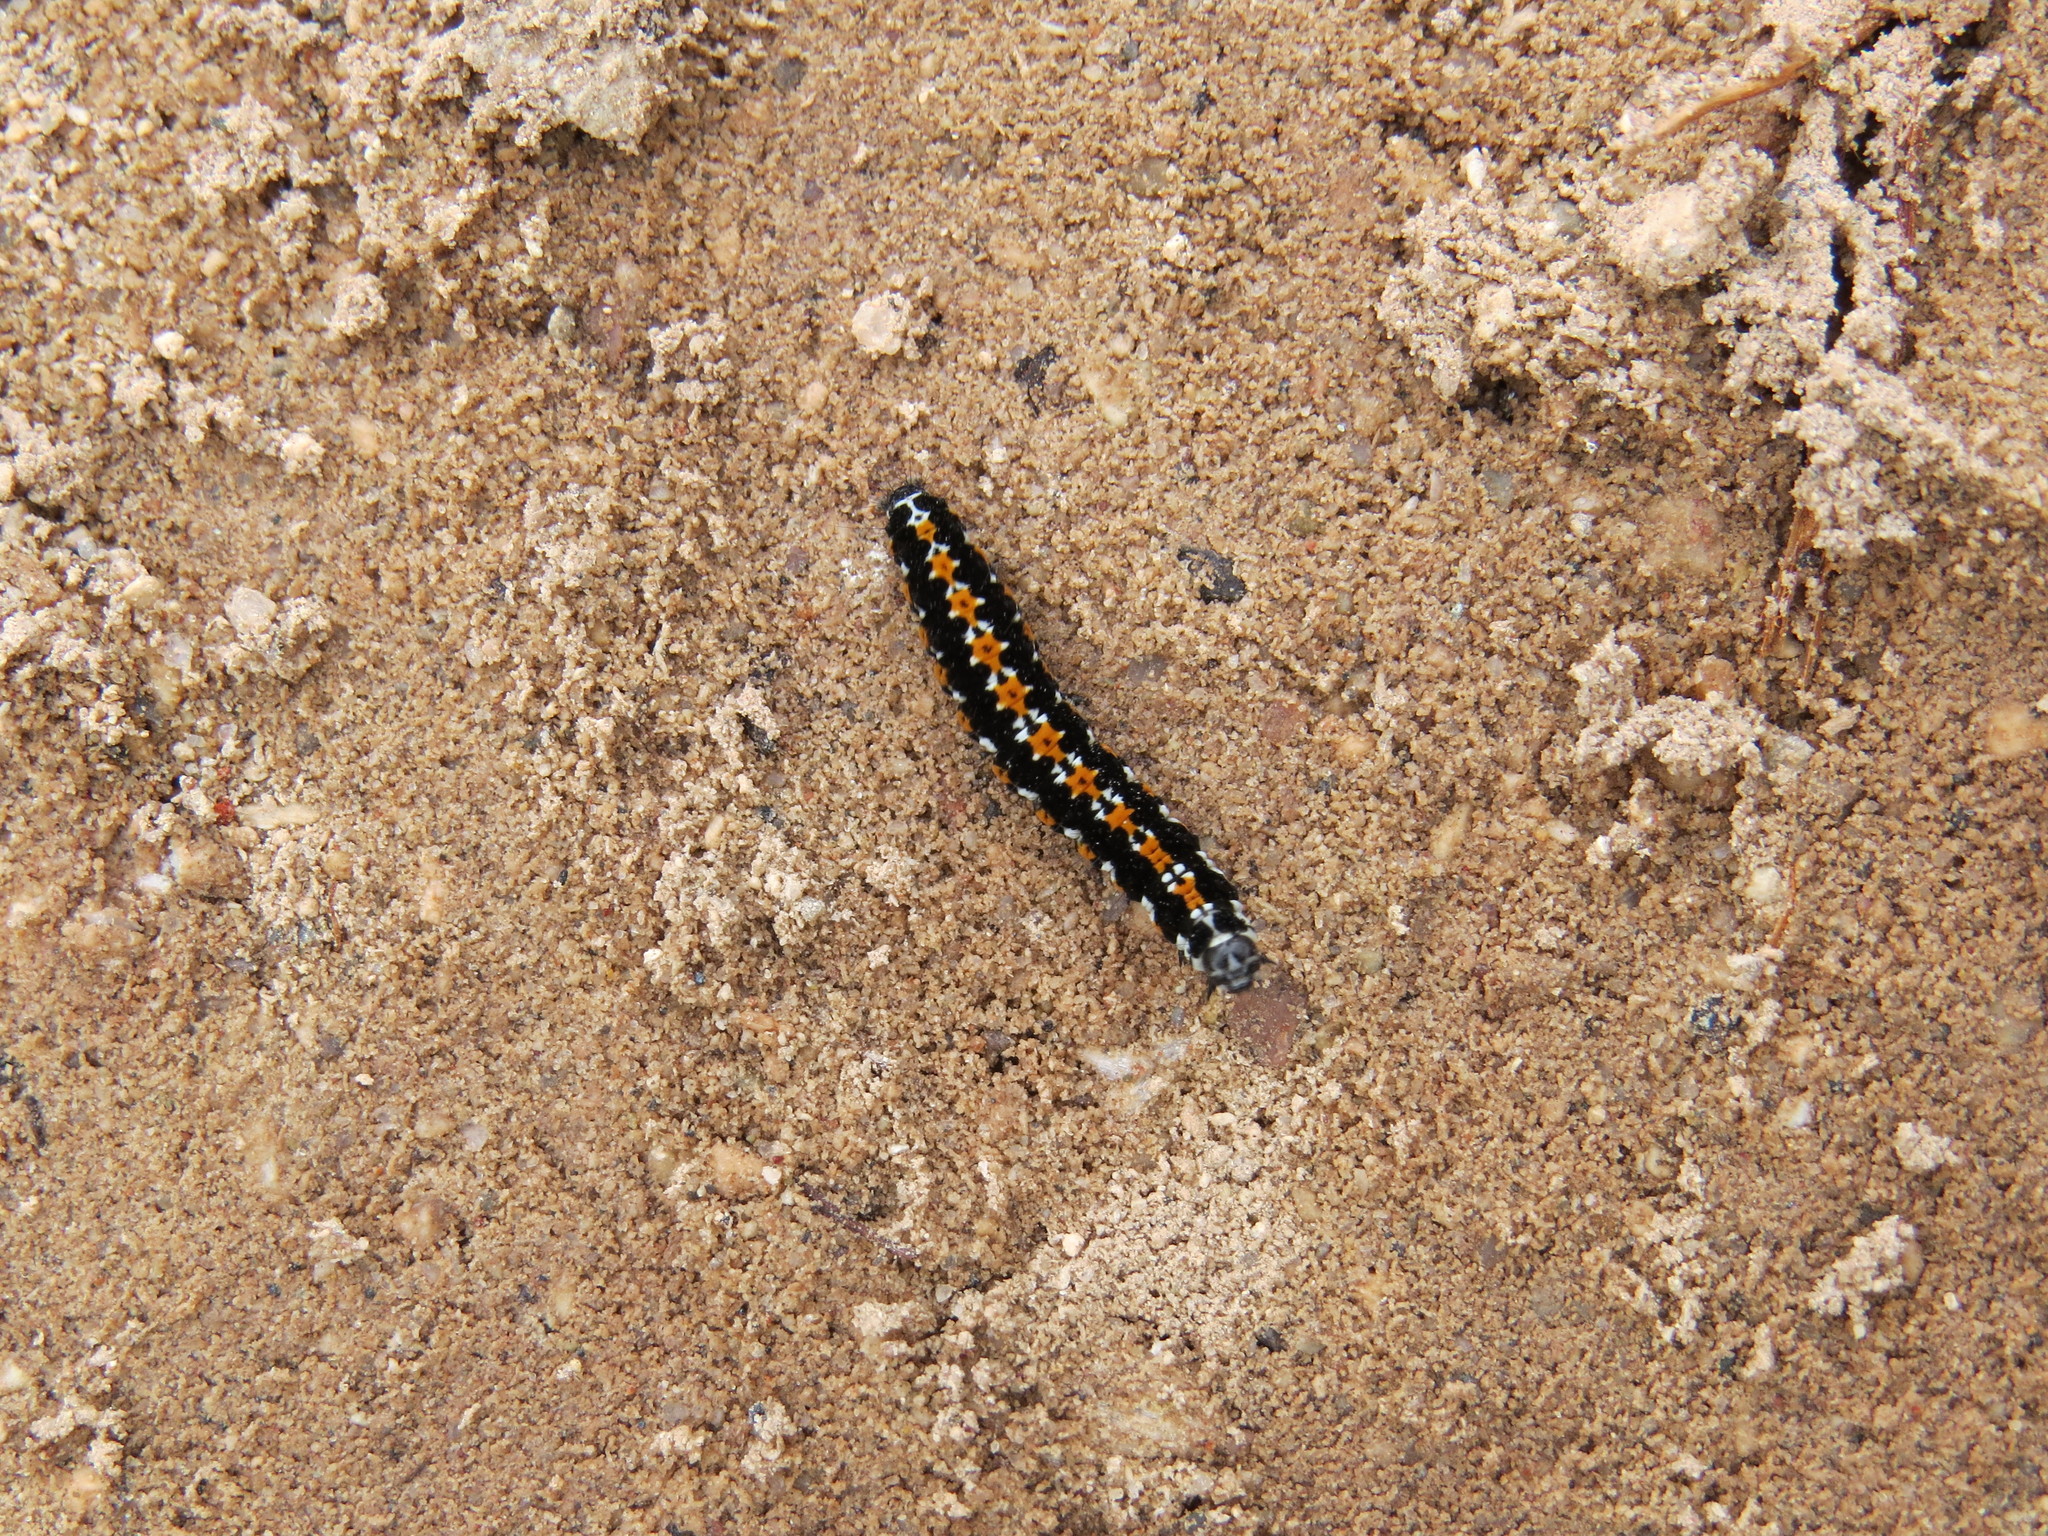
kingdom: Animalia
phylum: Arthropoda
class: Insecta
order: Lepidoptera
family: Ethmiidae
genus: Ethmia
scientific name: Ethmia candidella
